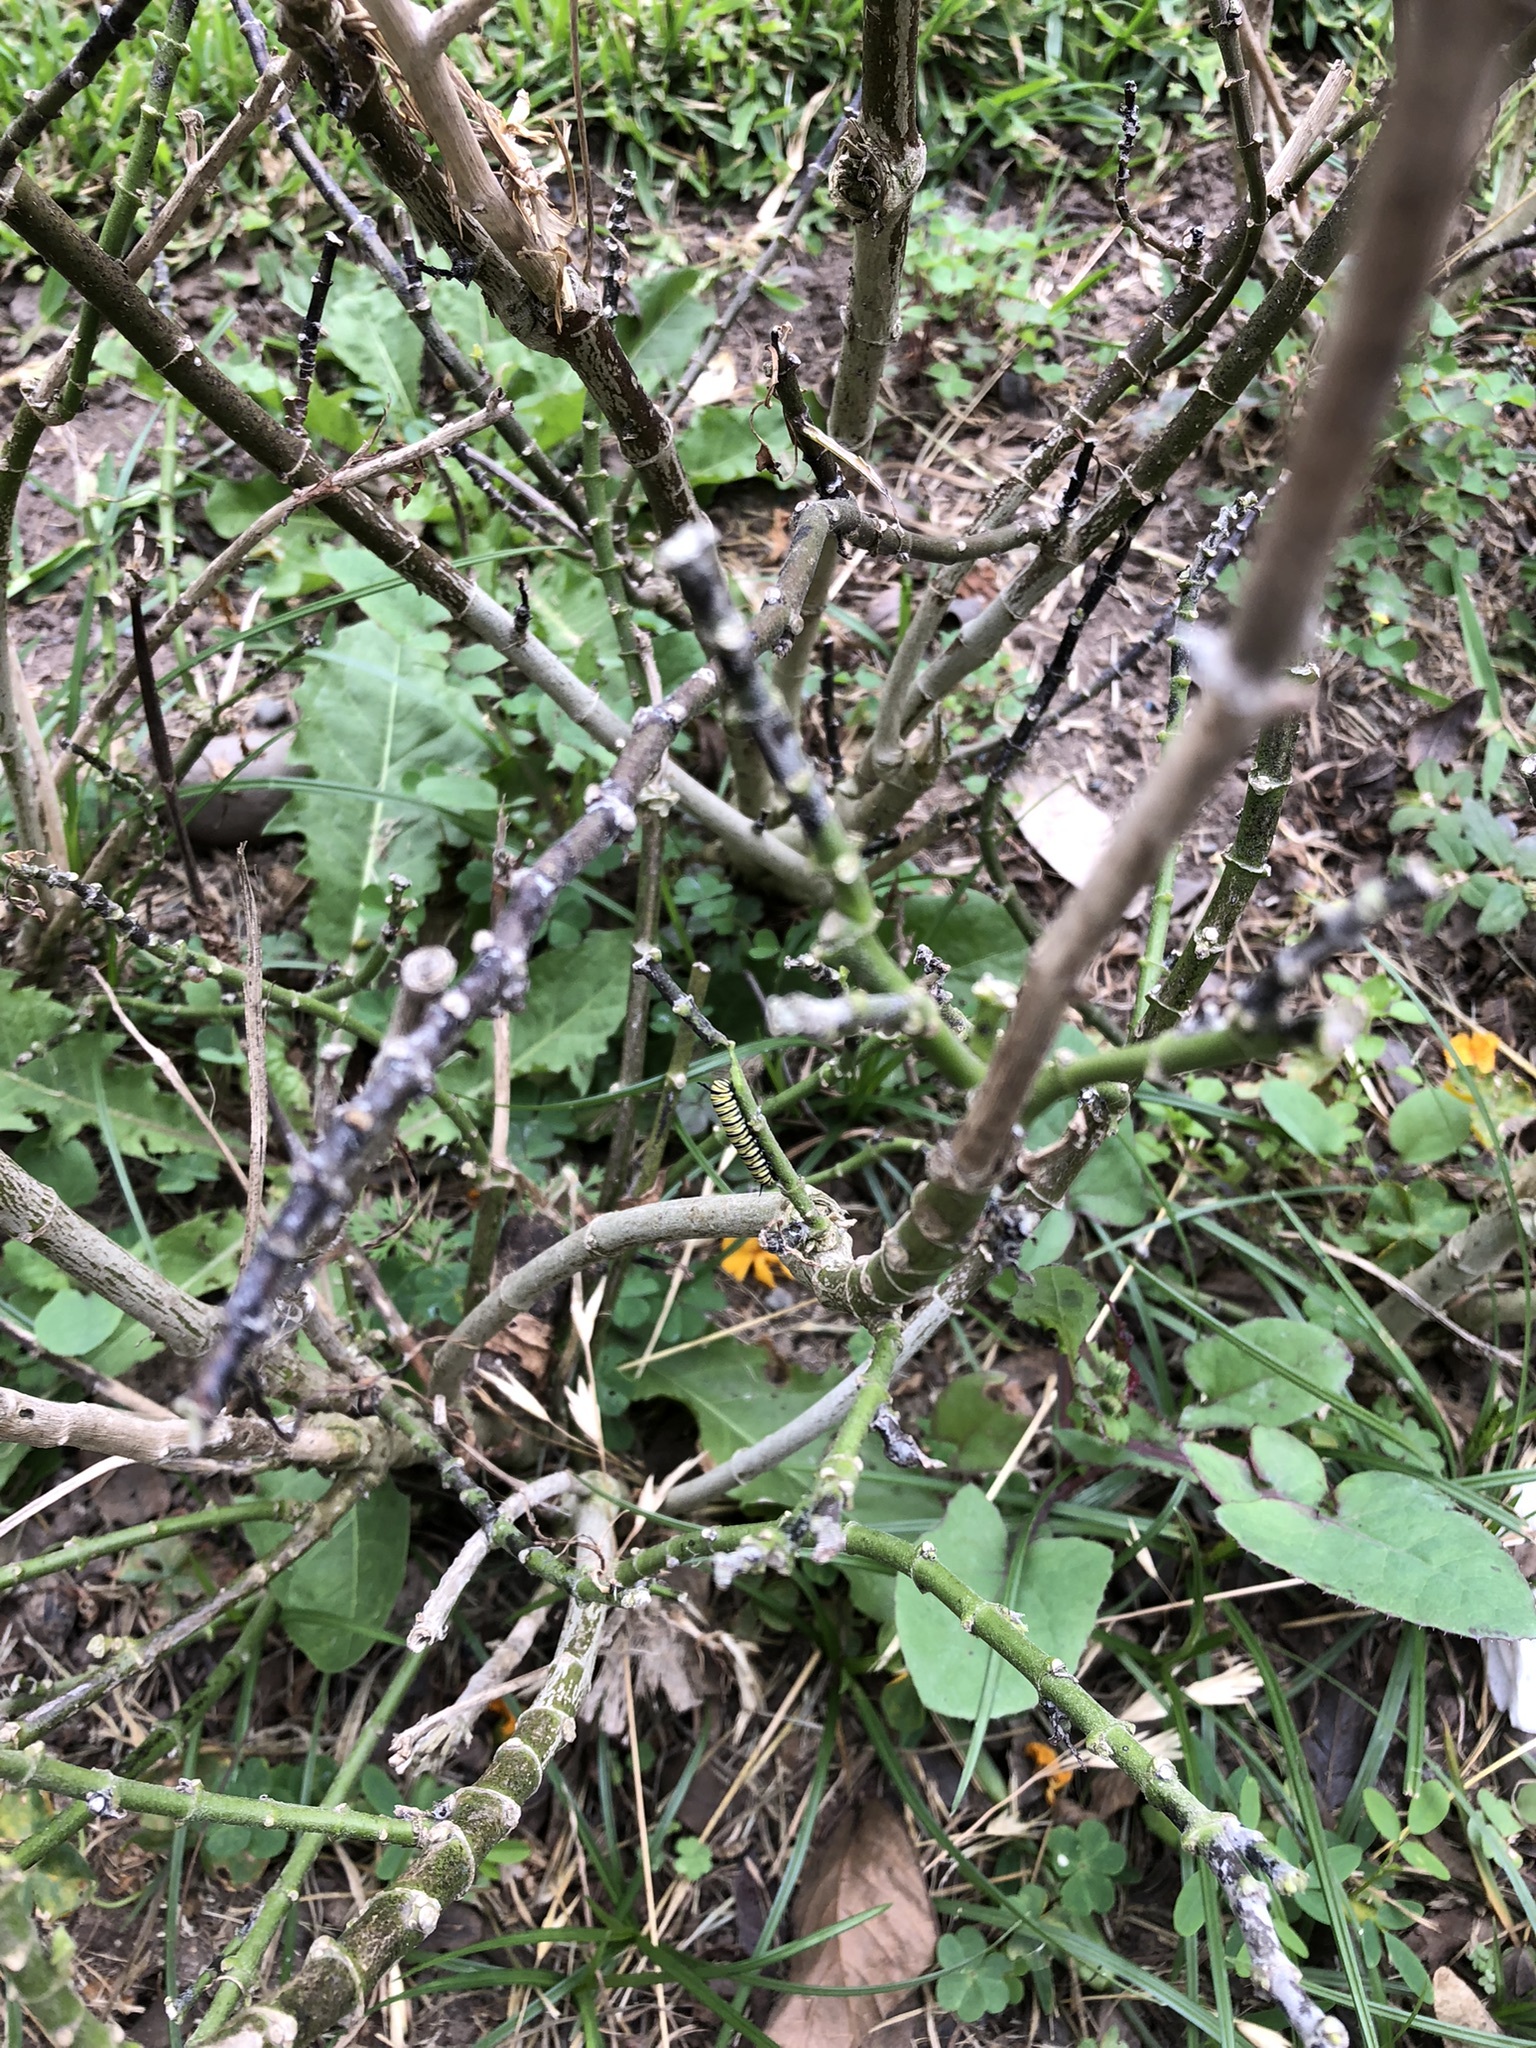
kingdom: Animalia
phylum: Arthropoda
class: Insecta
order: Lepidoptera
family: Nymphalidae
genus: Danaus
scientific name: Danaus plexippus
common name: Monarch
